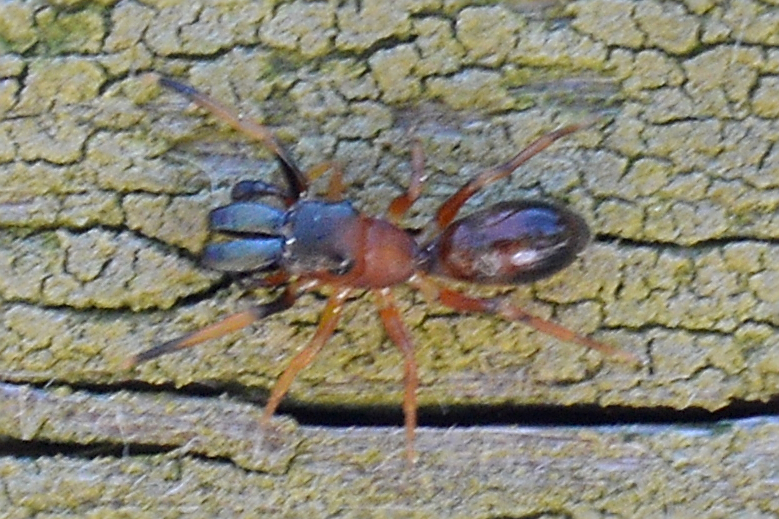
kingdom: Animalia
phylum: Arthropoda
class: Arachnida
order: Araneae
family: Salticidae
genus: Myrmarachne
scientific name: Myrmarachne formicaria
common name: Ant mimic jumping spider
